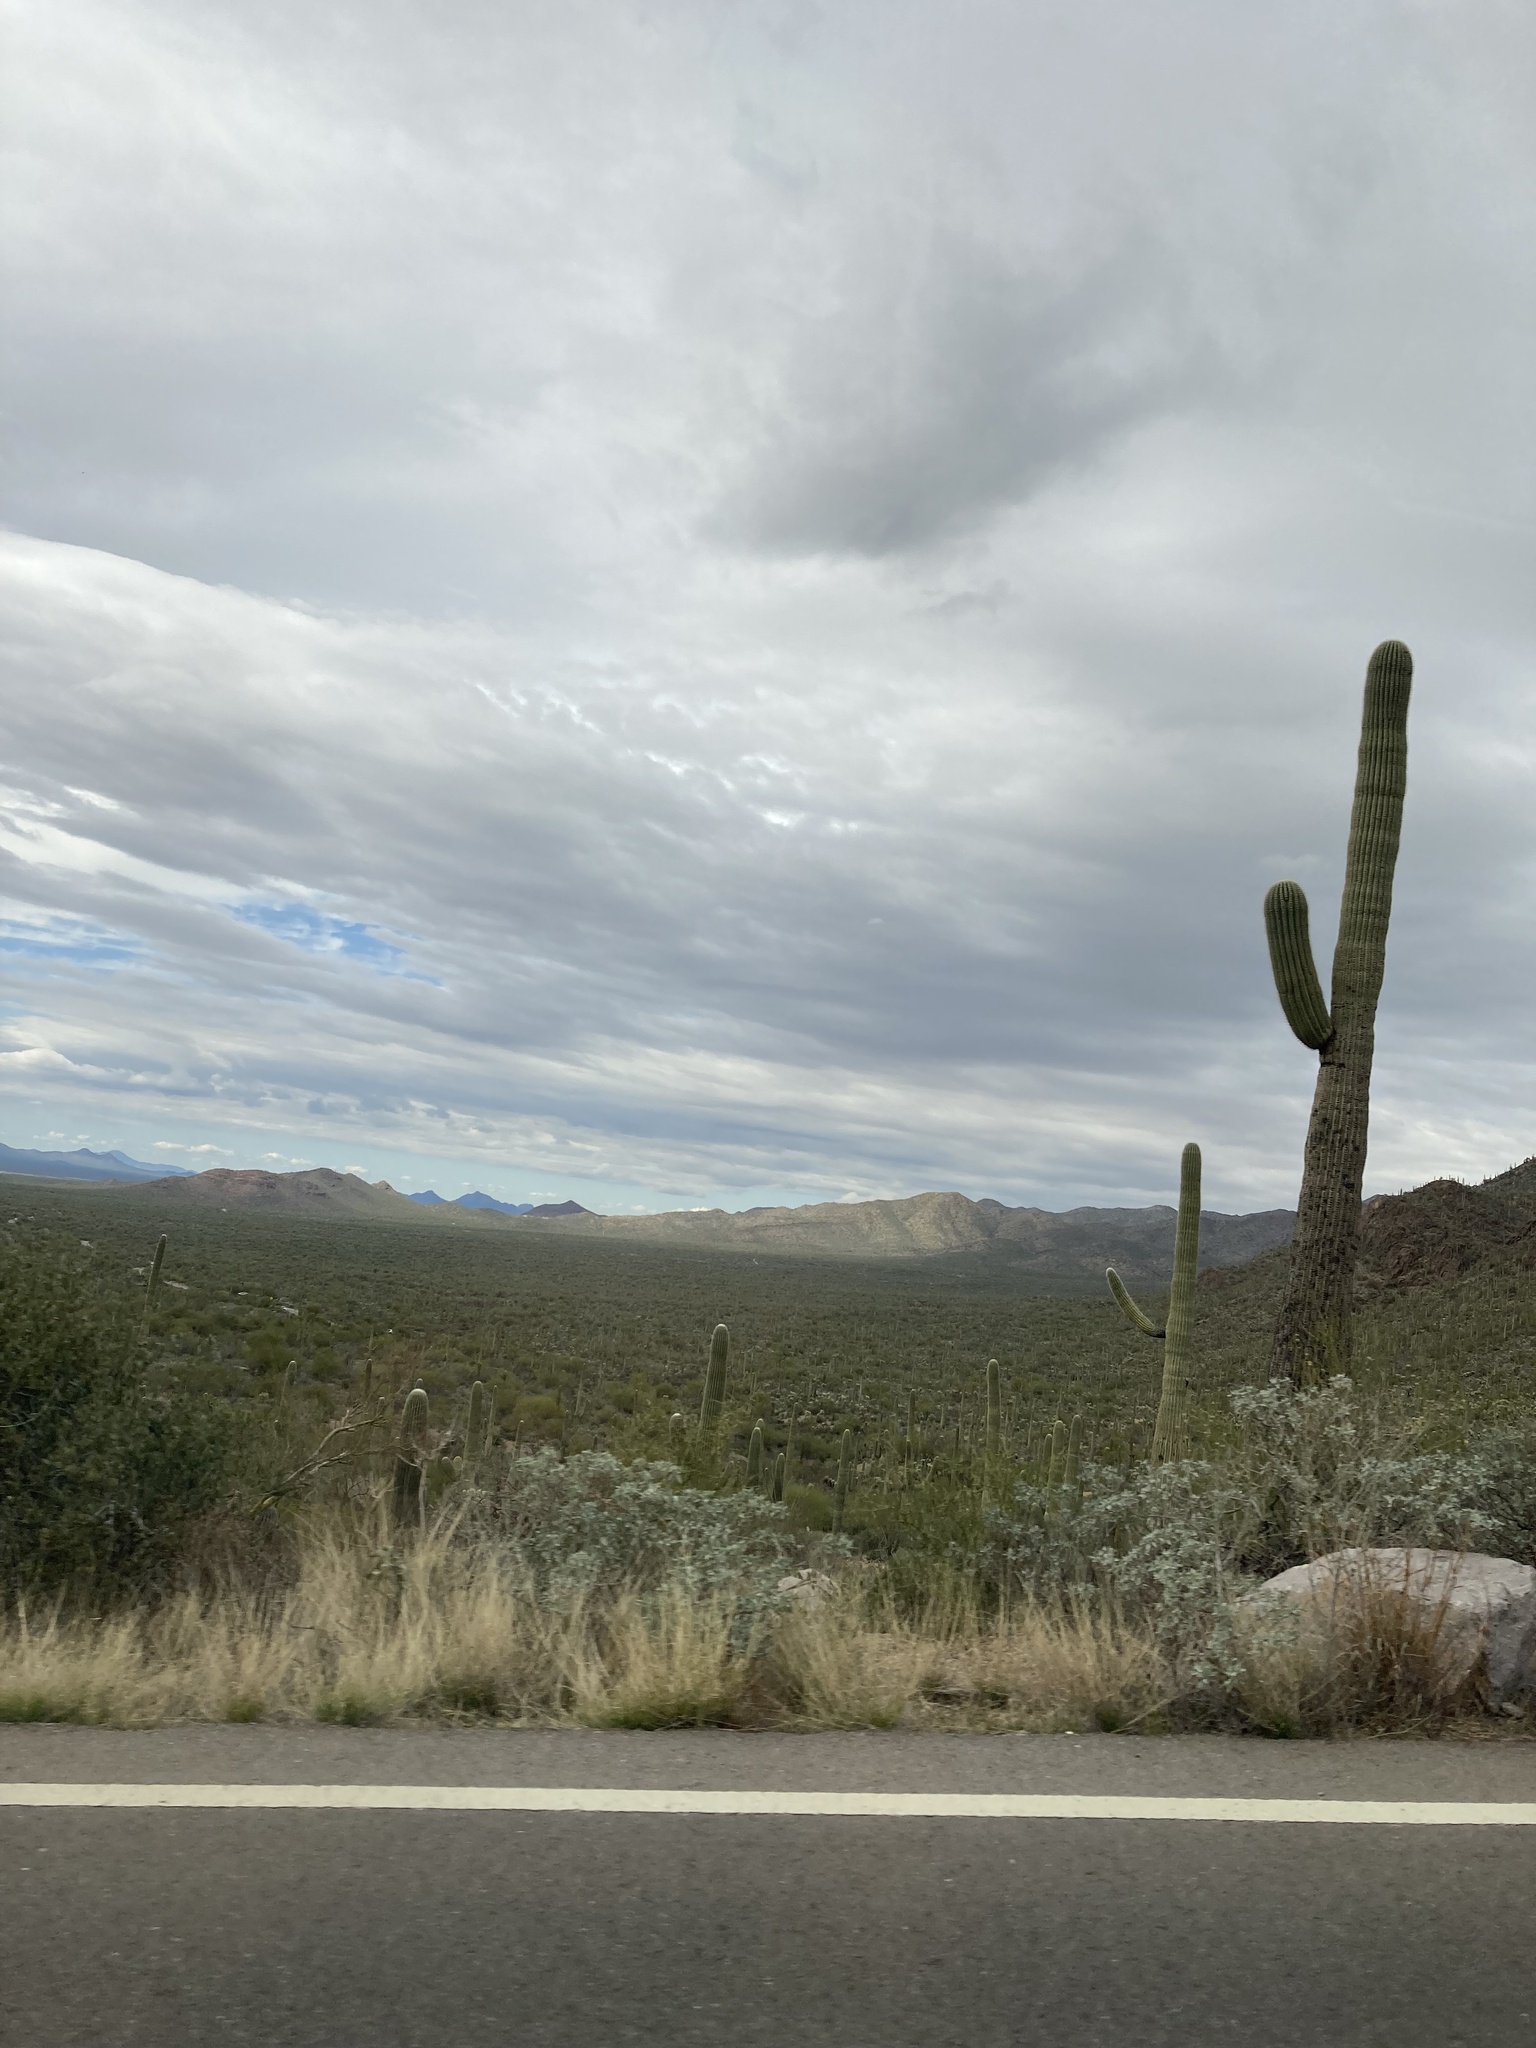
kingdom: Plantae
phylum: Tracheophyta
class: Magnoliopsida
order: Caryophyllales
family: Cactaceae
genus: Carnegiea
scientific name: Carnegiea gigantea
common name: Saguaro
